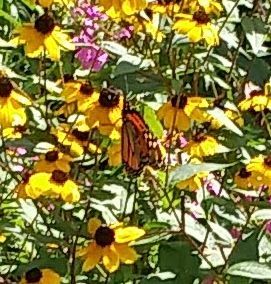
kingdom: Animalia
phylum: Arthropoda
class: Insecta
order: Lepidoptera
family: Nymphalidae
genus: Danaus
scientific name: Danaus plexippus
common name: Monarch
